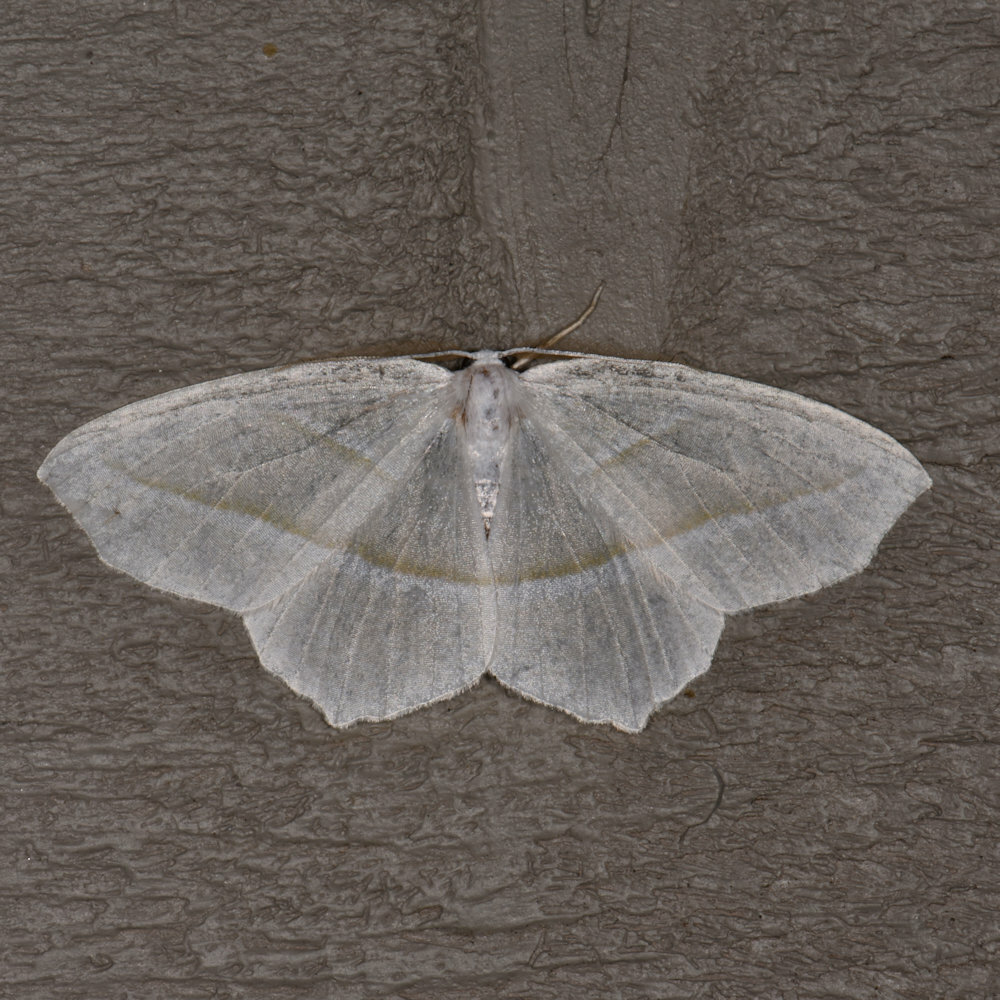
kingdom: Animalia
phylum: Arthropoda
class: Insecta
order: Lepidoptera
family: Geometridae
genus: Campaea
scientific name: Campaea perlata
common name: Fringed looper
